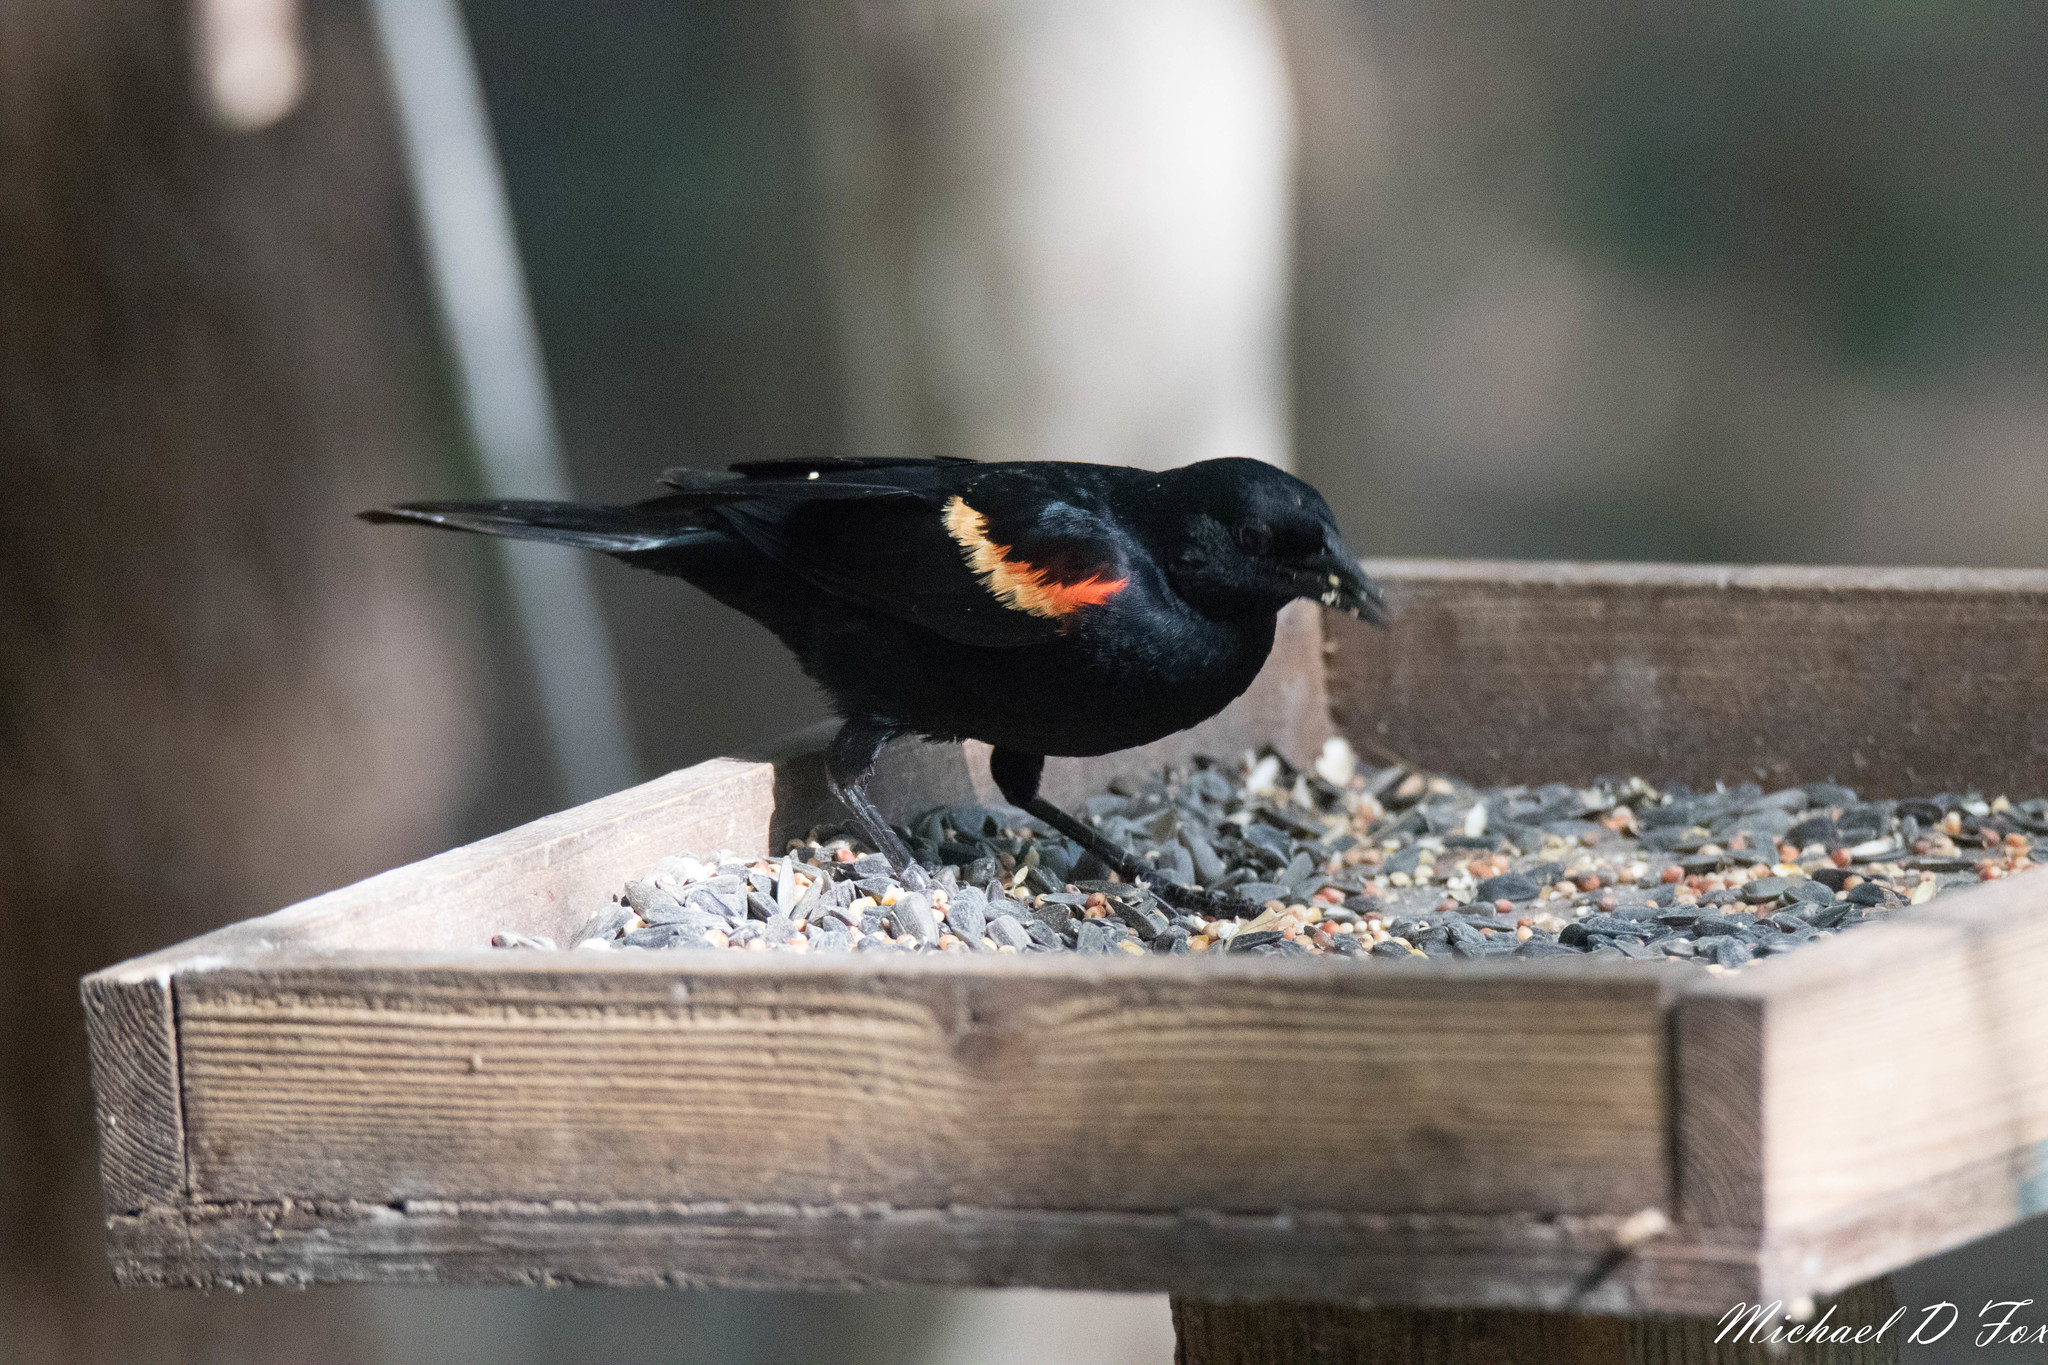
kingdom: Animalia
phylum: Chordata
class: Aves
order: Passeriformes
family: Icteridae
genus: Agelaius
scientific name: Agelaius phoeniceus
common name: Red-winged blackbird
